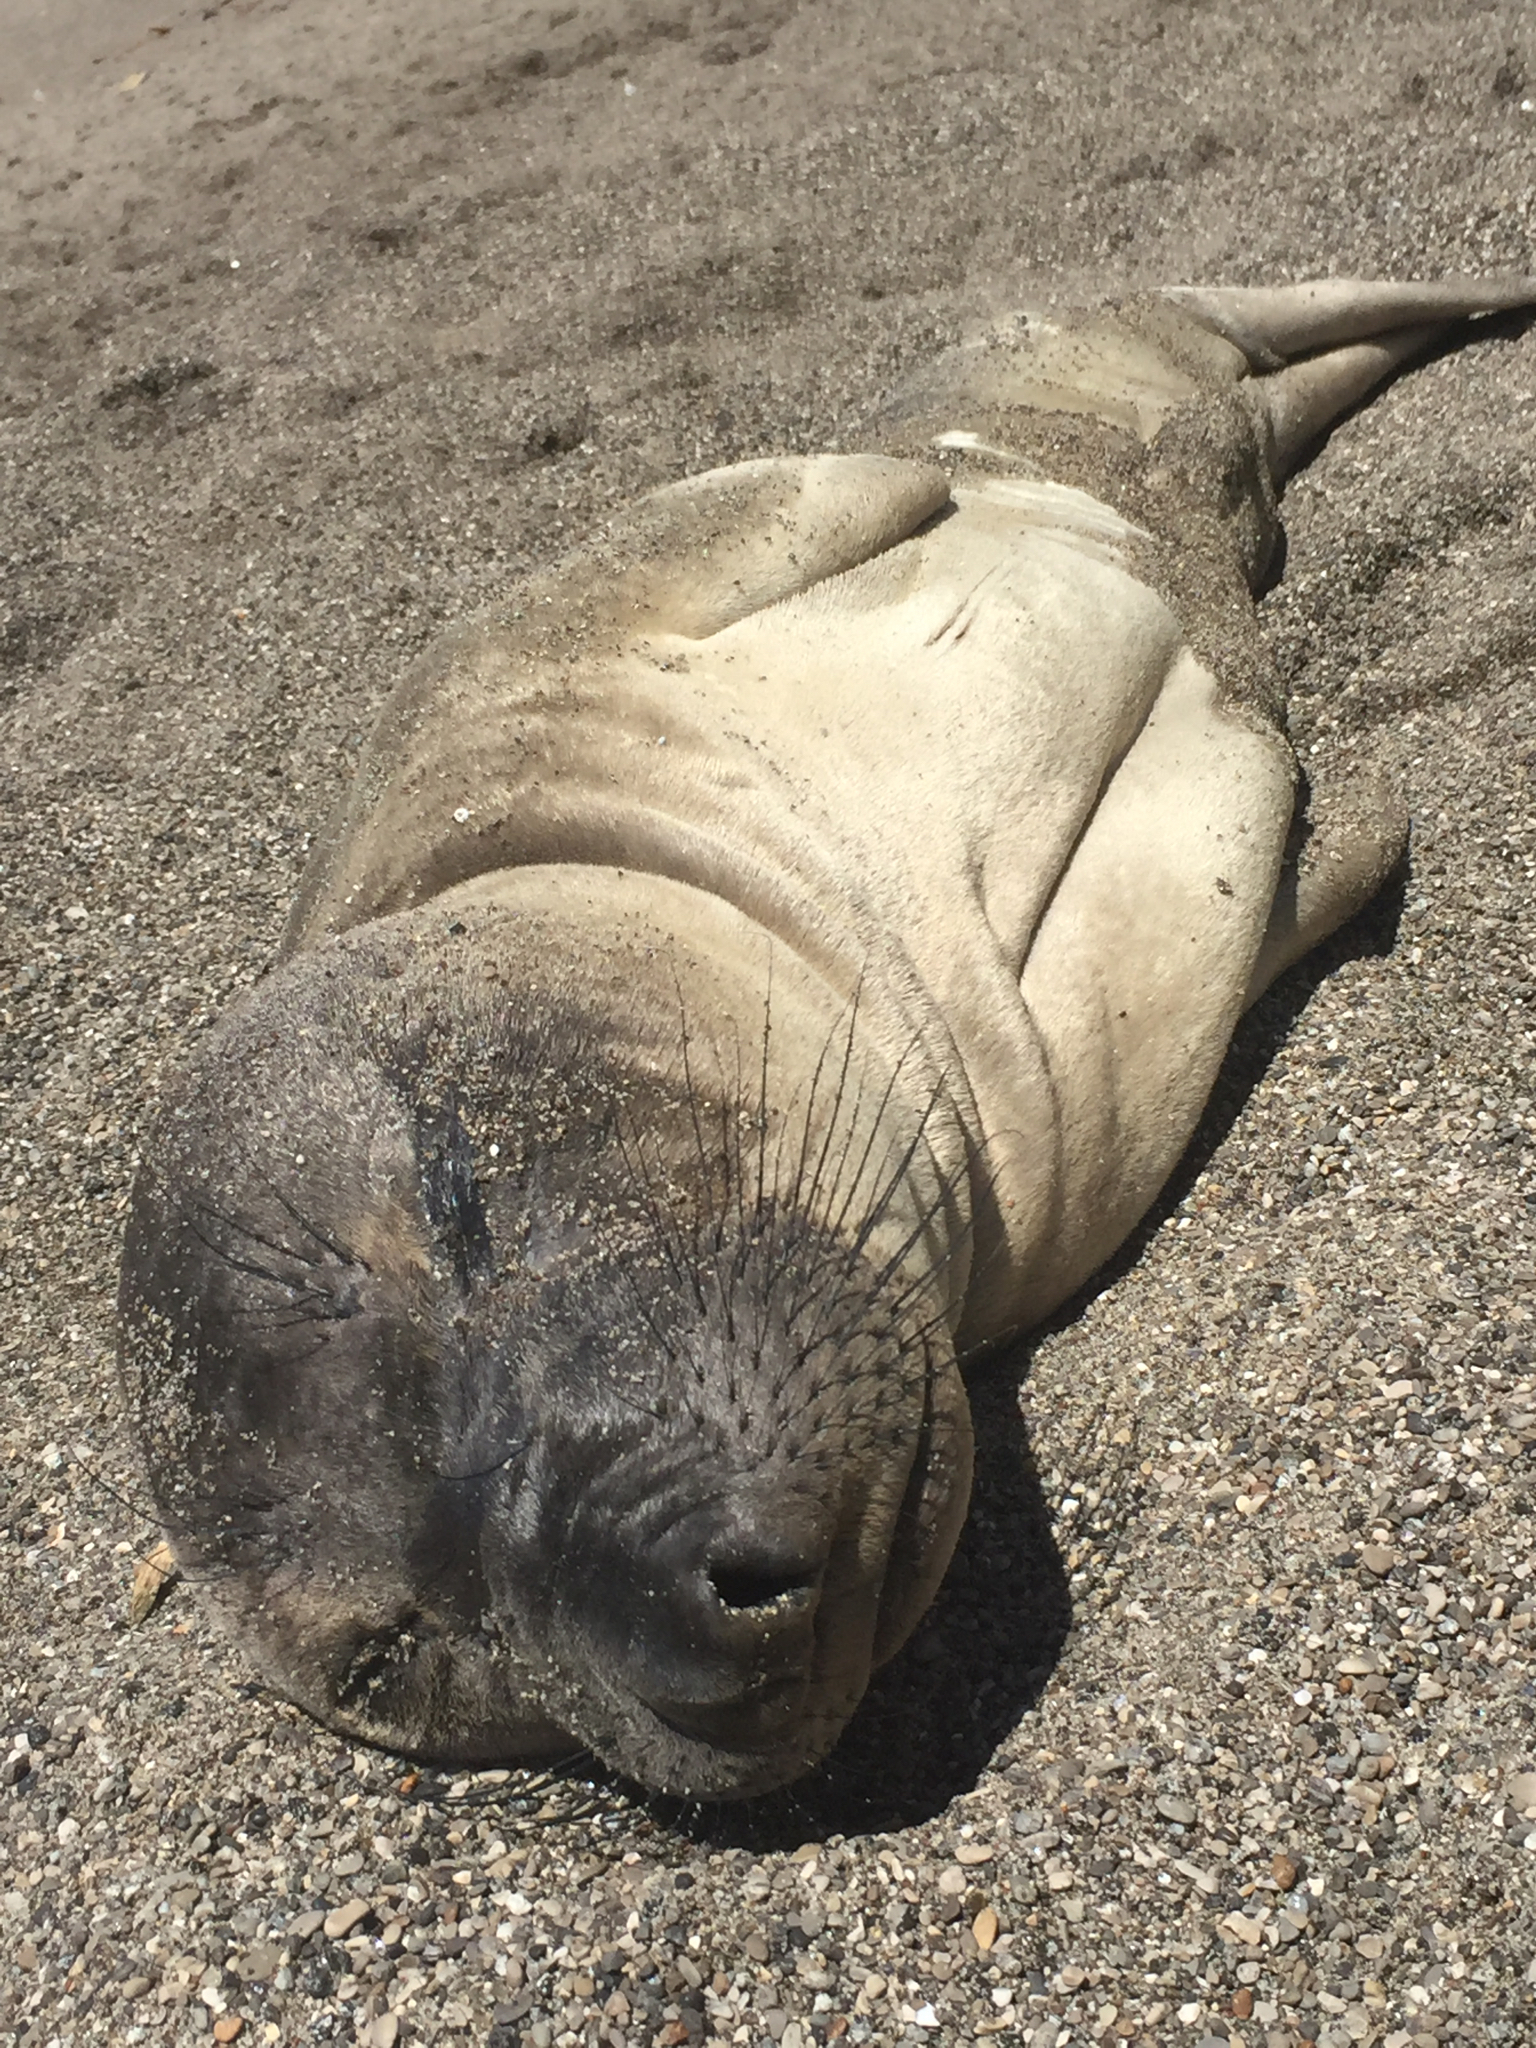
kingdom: Animalia
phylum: Chordata
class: Mammalia
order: Carnivora
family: Phocidae
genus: Mirounga
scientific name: Mirounga angustirostris
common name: Northern elephant seal
